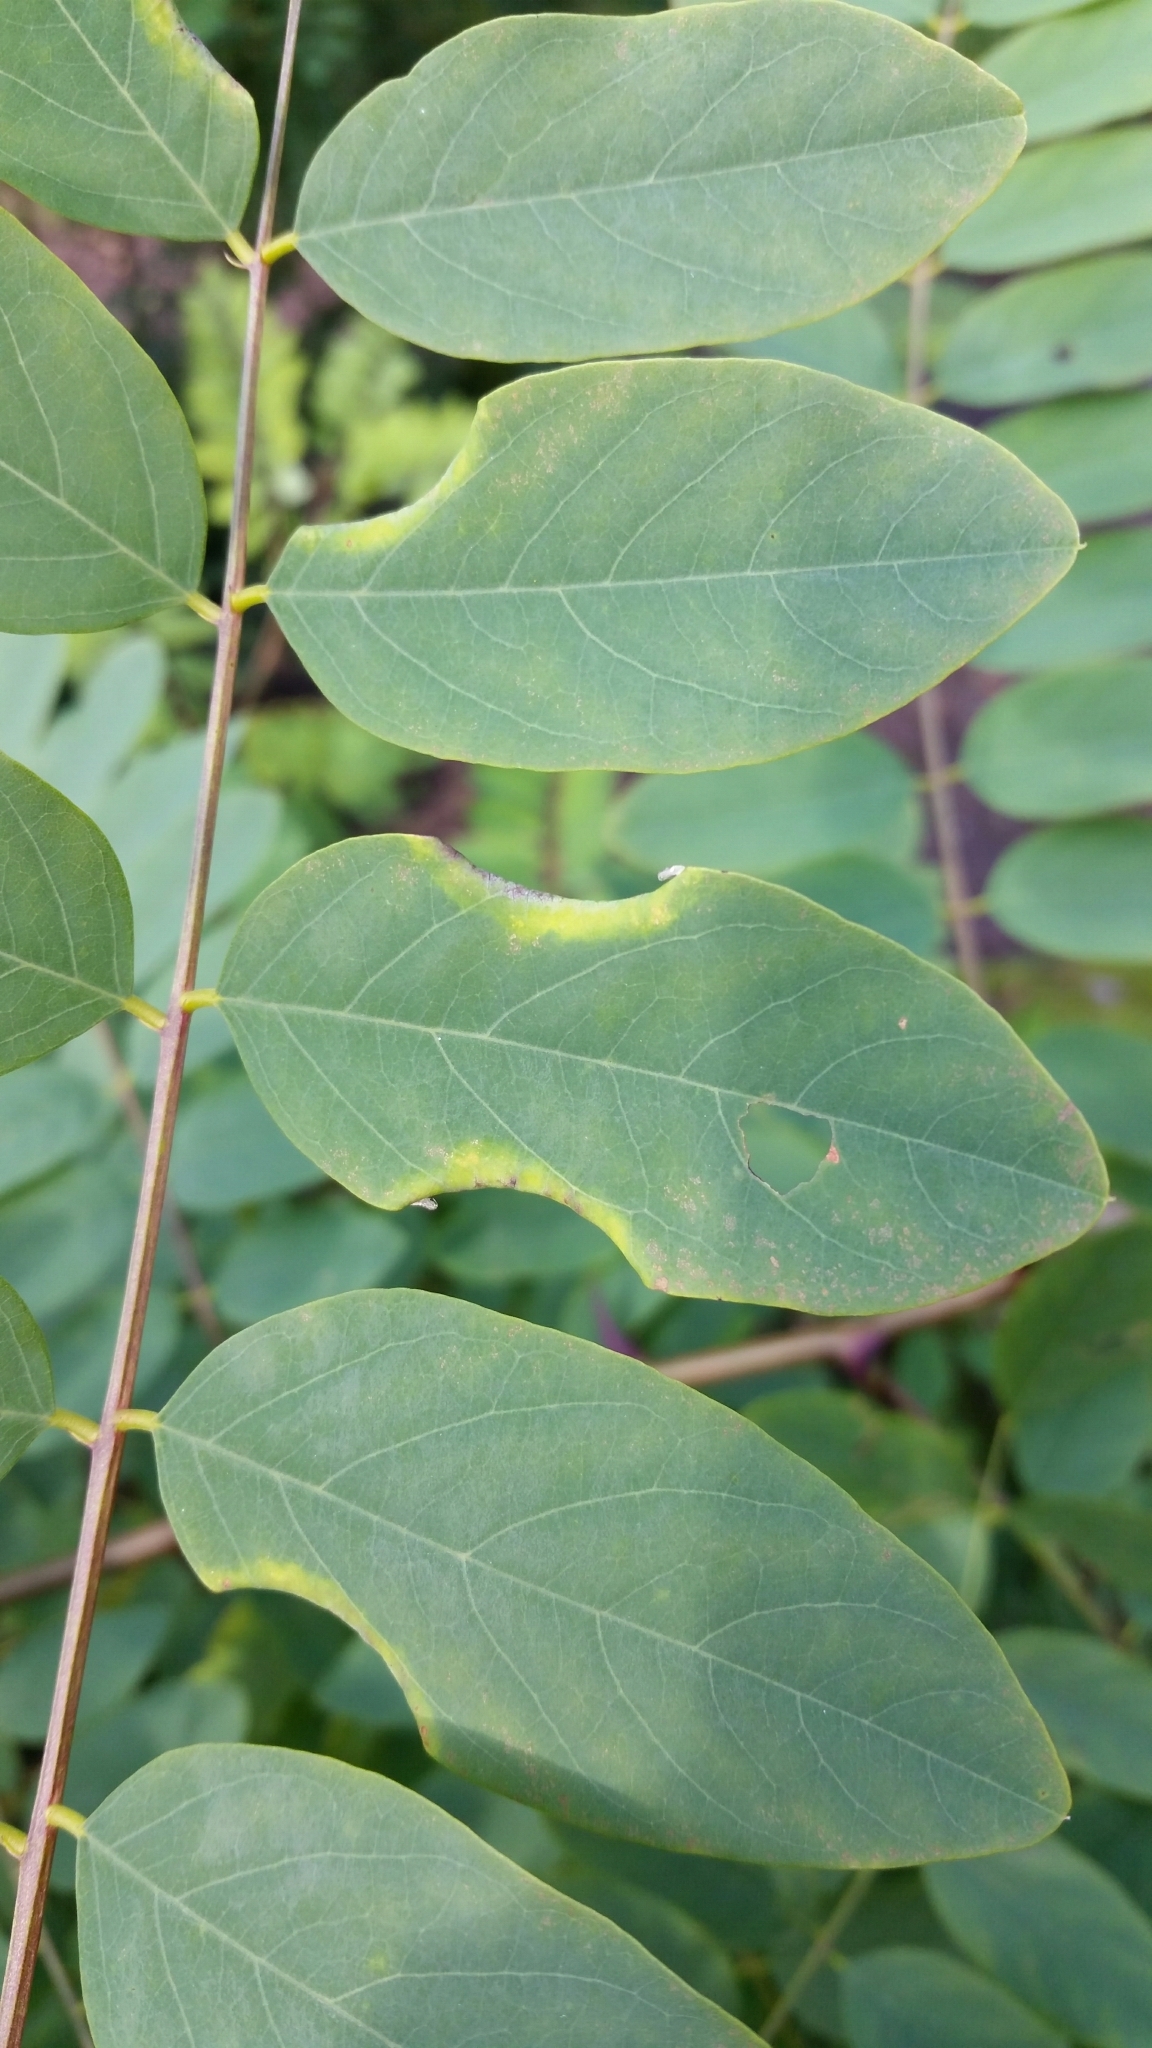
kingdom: Animalia
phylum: Arthropoda
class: Insecta
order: Diptera
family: Cecidomyiidae
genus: Obolodiplosis
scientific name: Obolodiplosis robiniae
